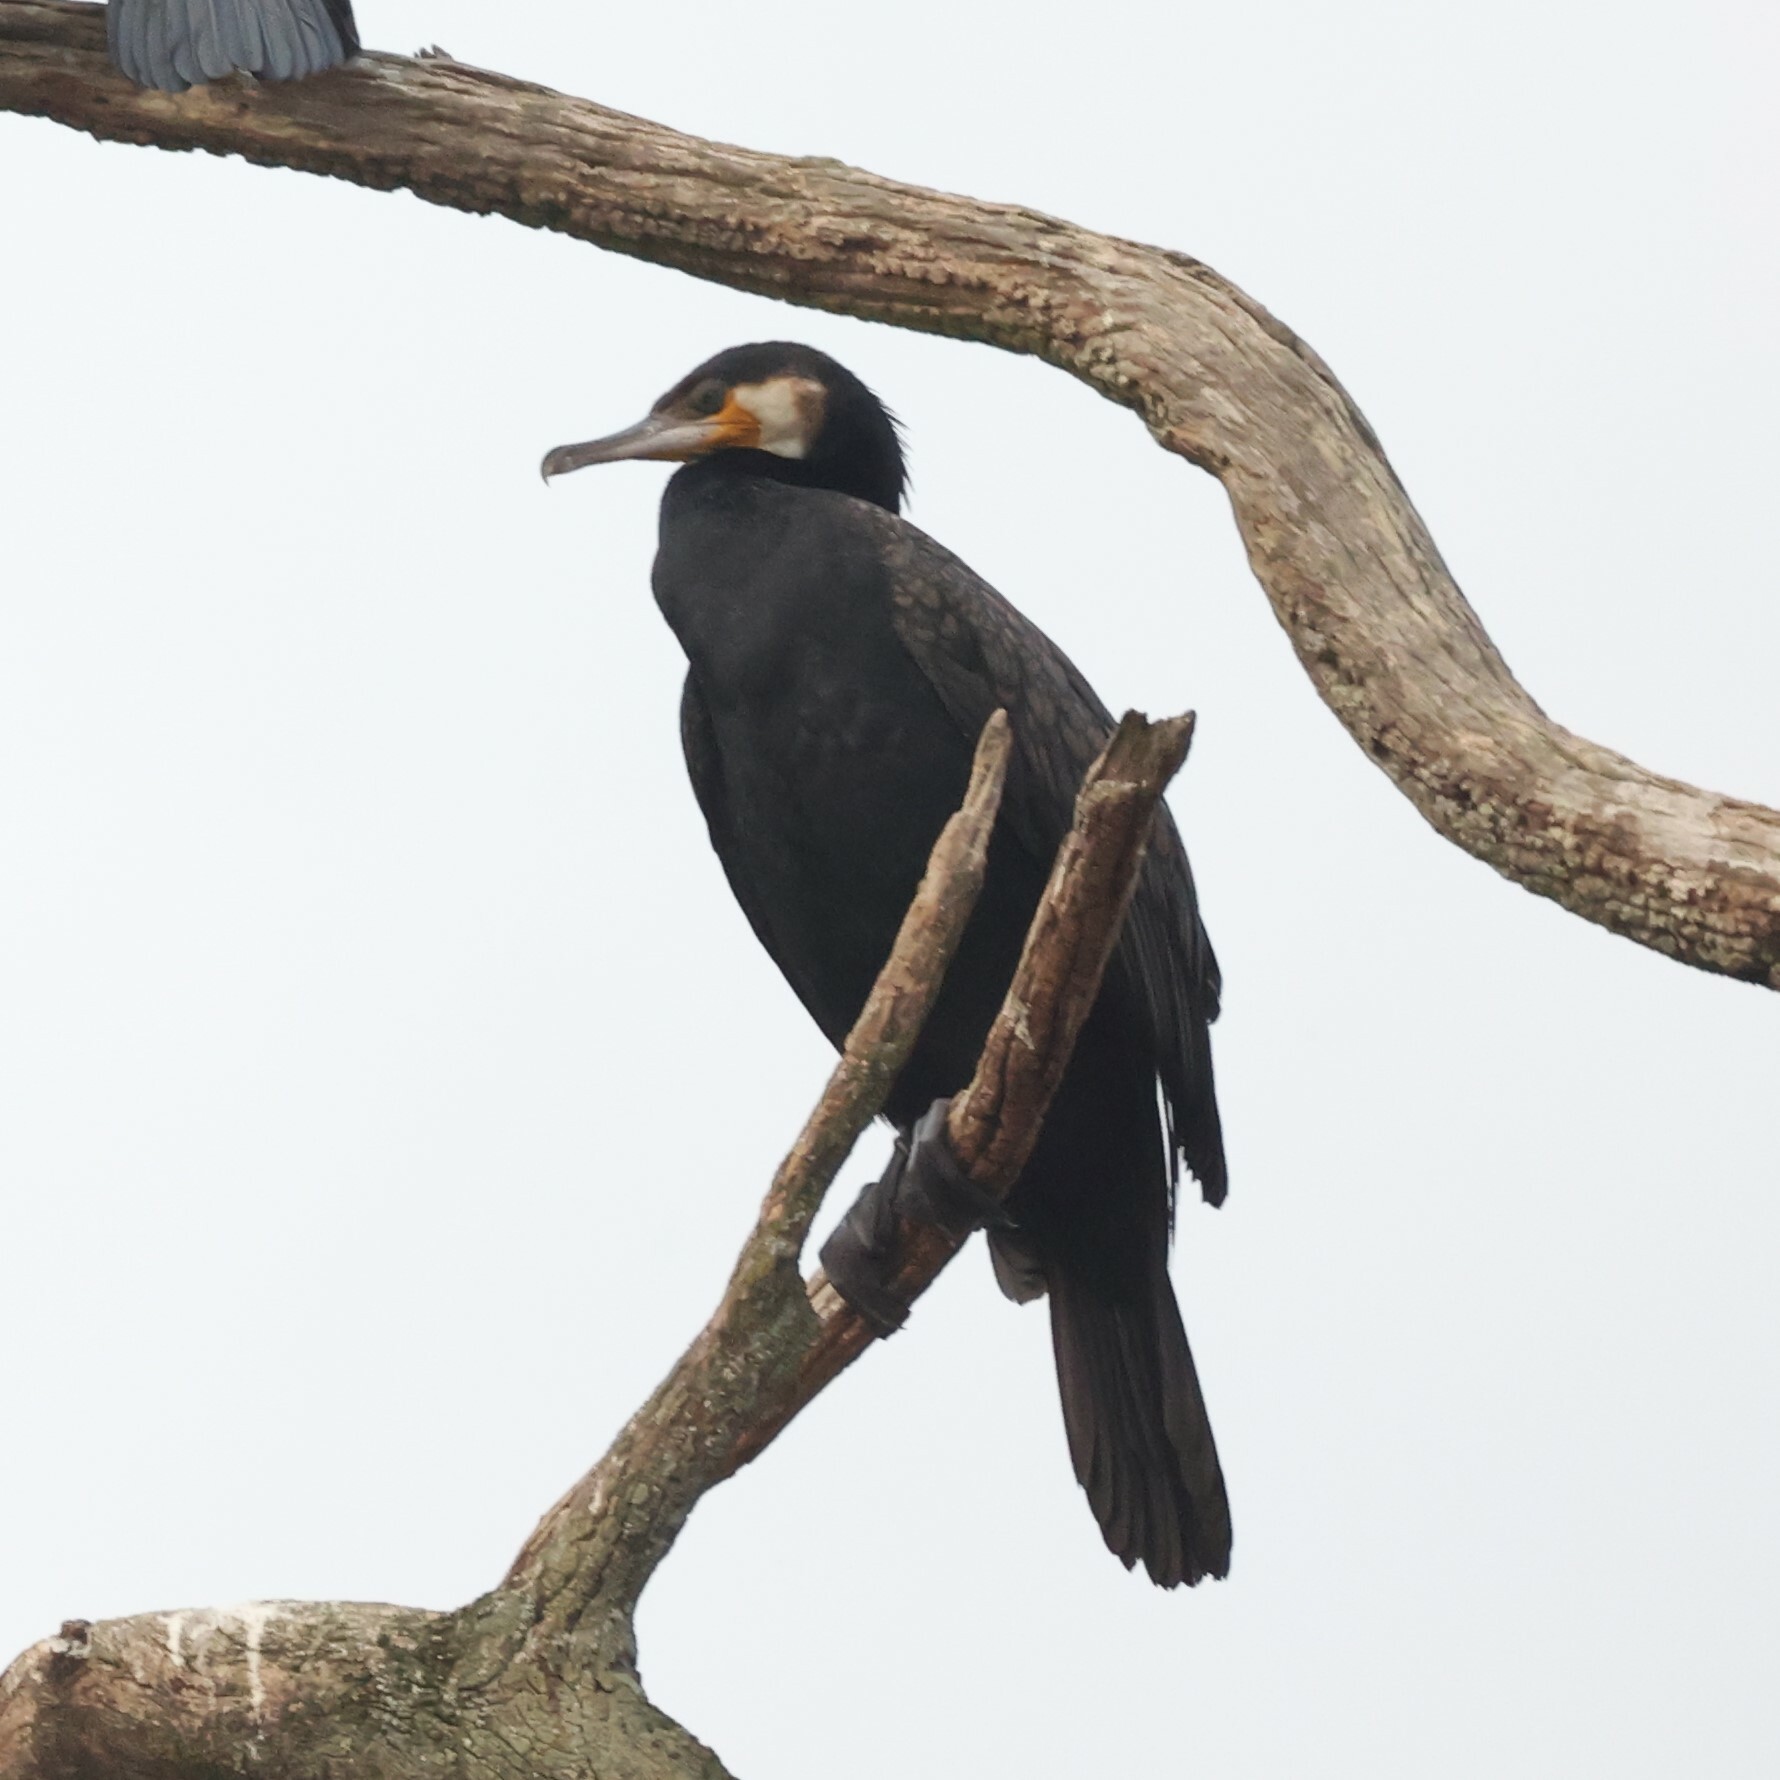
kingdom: Animalia
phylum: Chordata
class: Aves
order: Suliformes
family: Phalacrocoracidae
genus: Phalacrocorax
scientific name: Phalacrocorax carbo
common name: Great cormorant
